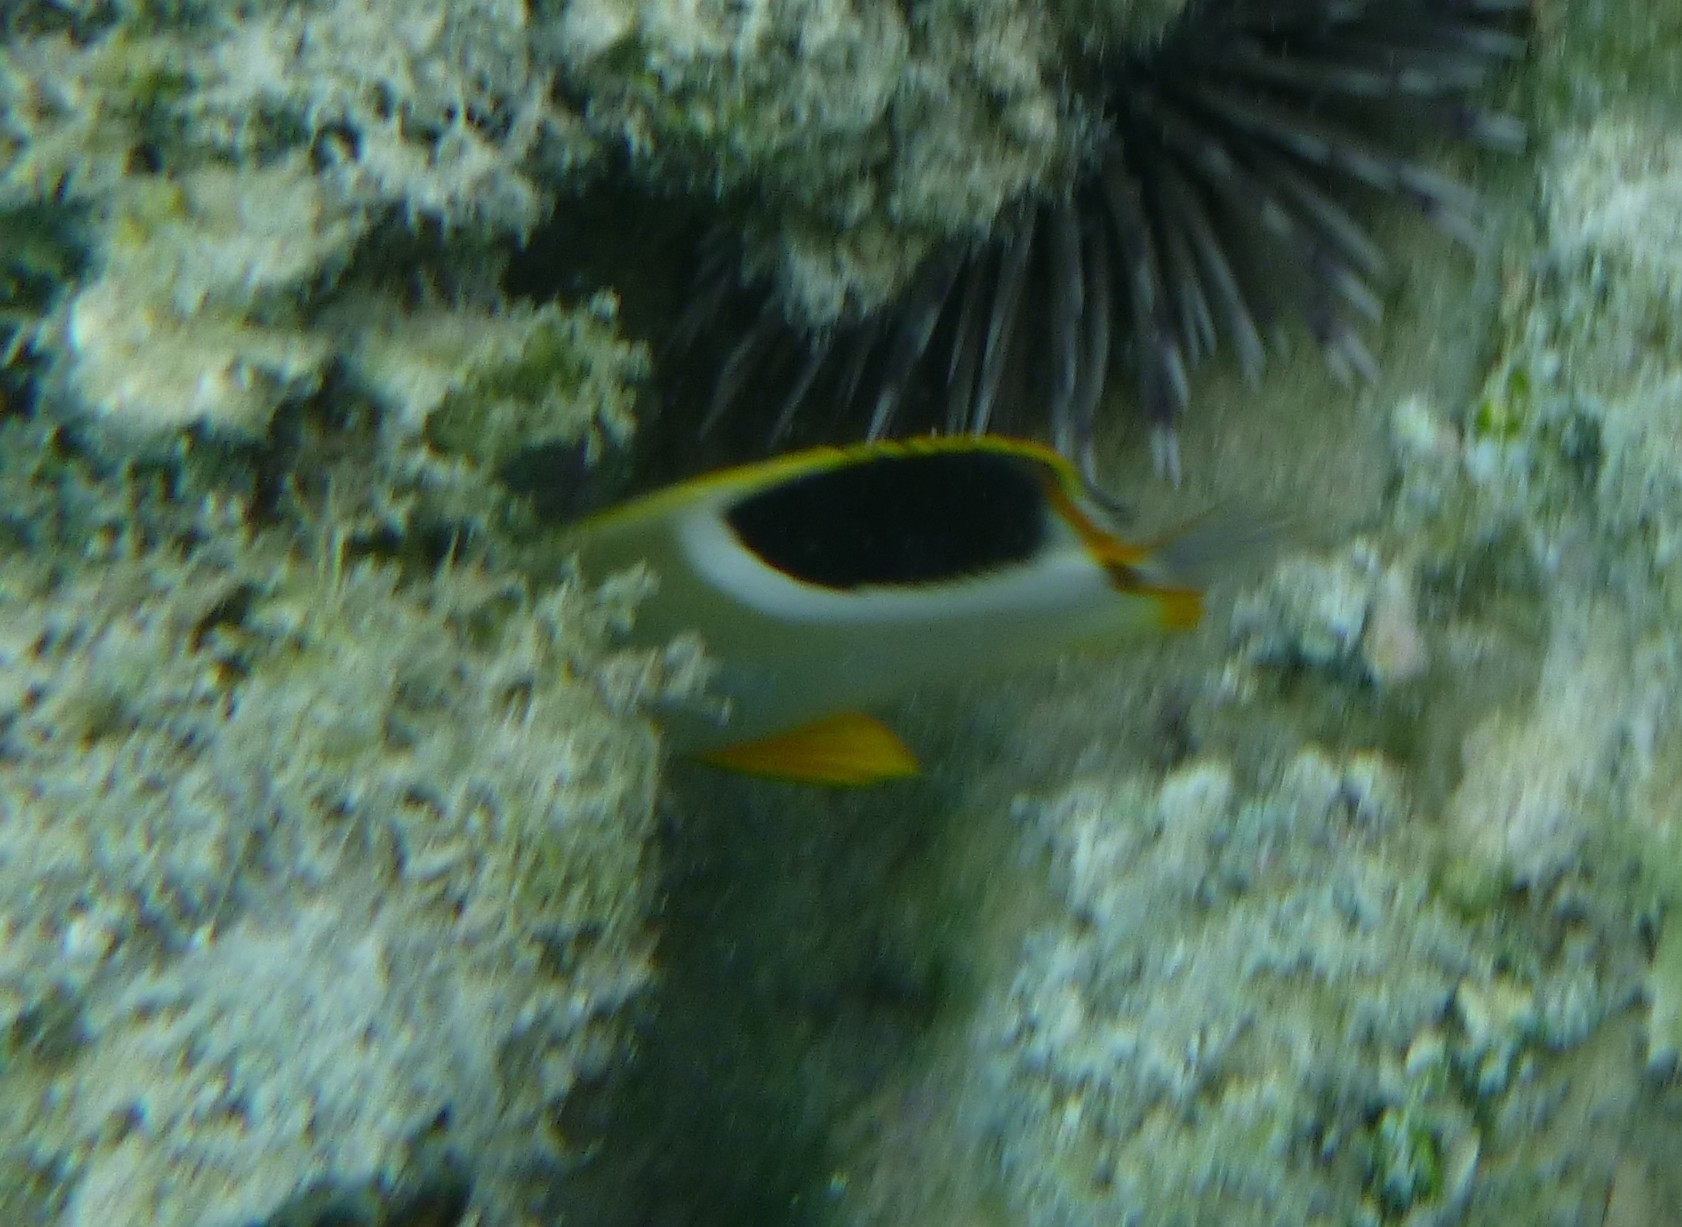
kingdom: Animalia
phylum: Chordata
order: Perciformes
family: Chaetodontidae
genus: Chaetodon
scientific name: Chaetodon ephippium
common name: Saddled butterflyfish
